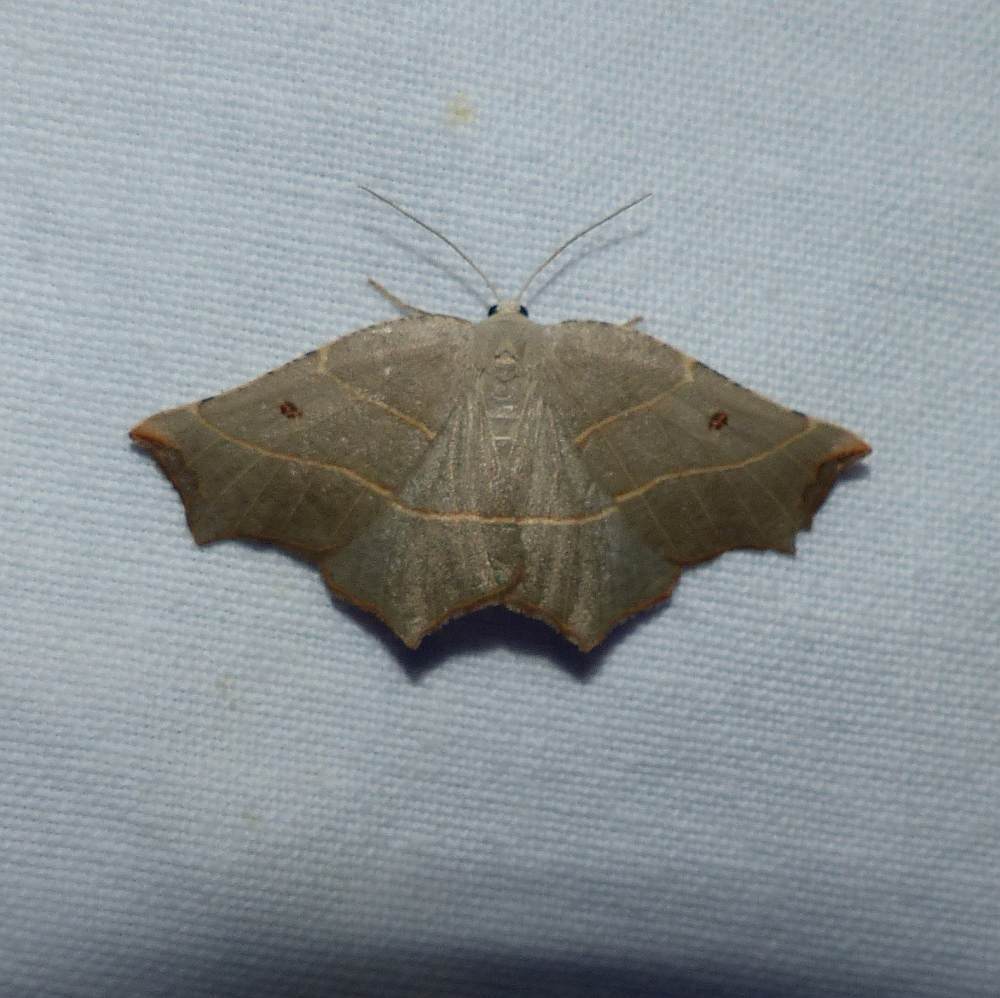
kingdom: Animalia
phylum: Arthropoda
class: Insecta
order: Lepidoptera
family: Geometridae
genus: Metanema
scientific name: Metanema inatomaria
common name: Pale metanema
